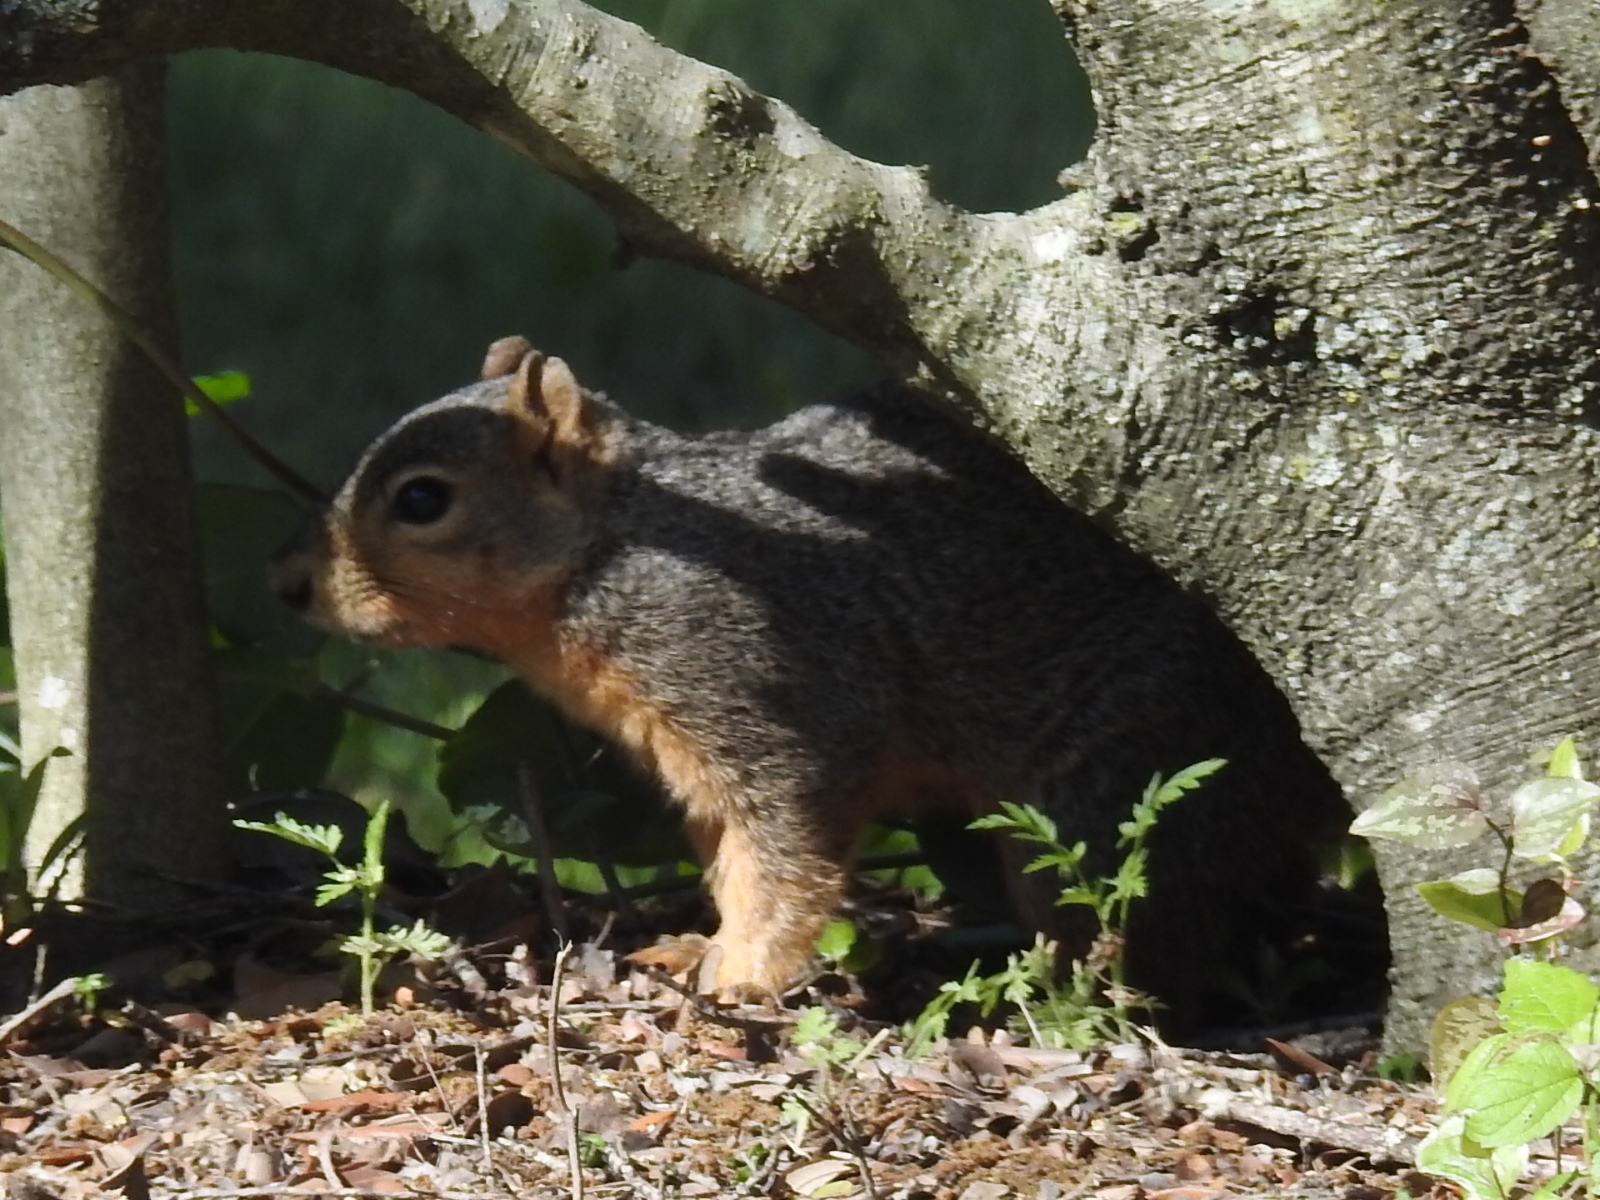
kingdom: Animalia
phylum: Chordata
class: Mammalia
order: Rodentia
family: Sciuridae
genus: Sciurus
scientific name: Sciurus niger
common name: Fox squirrel
